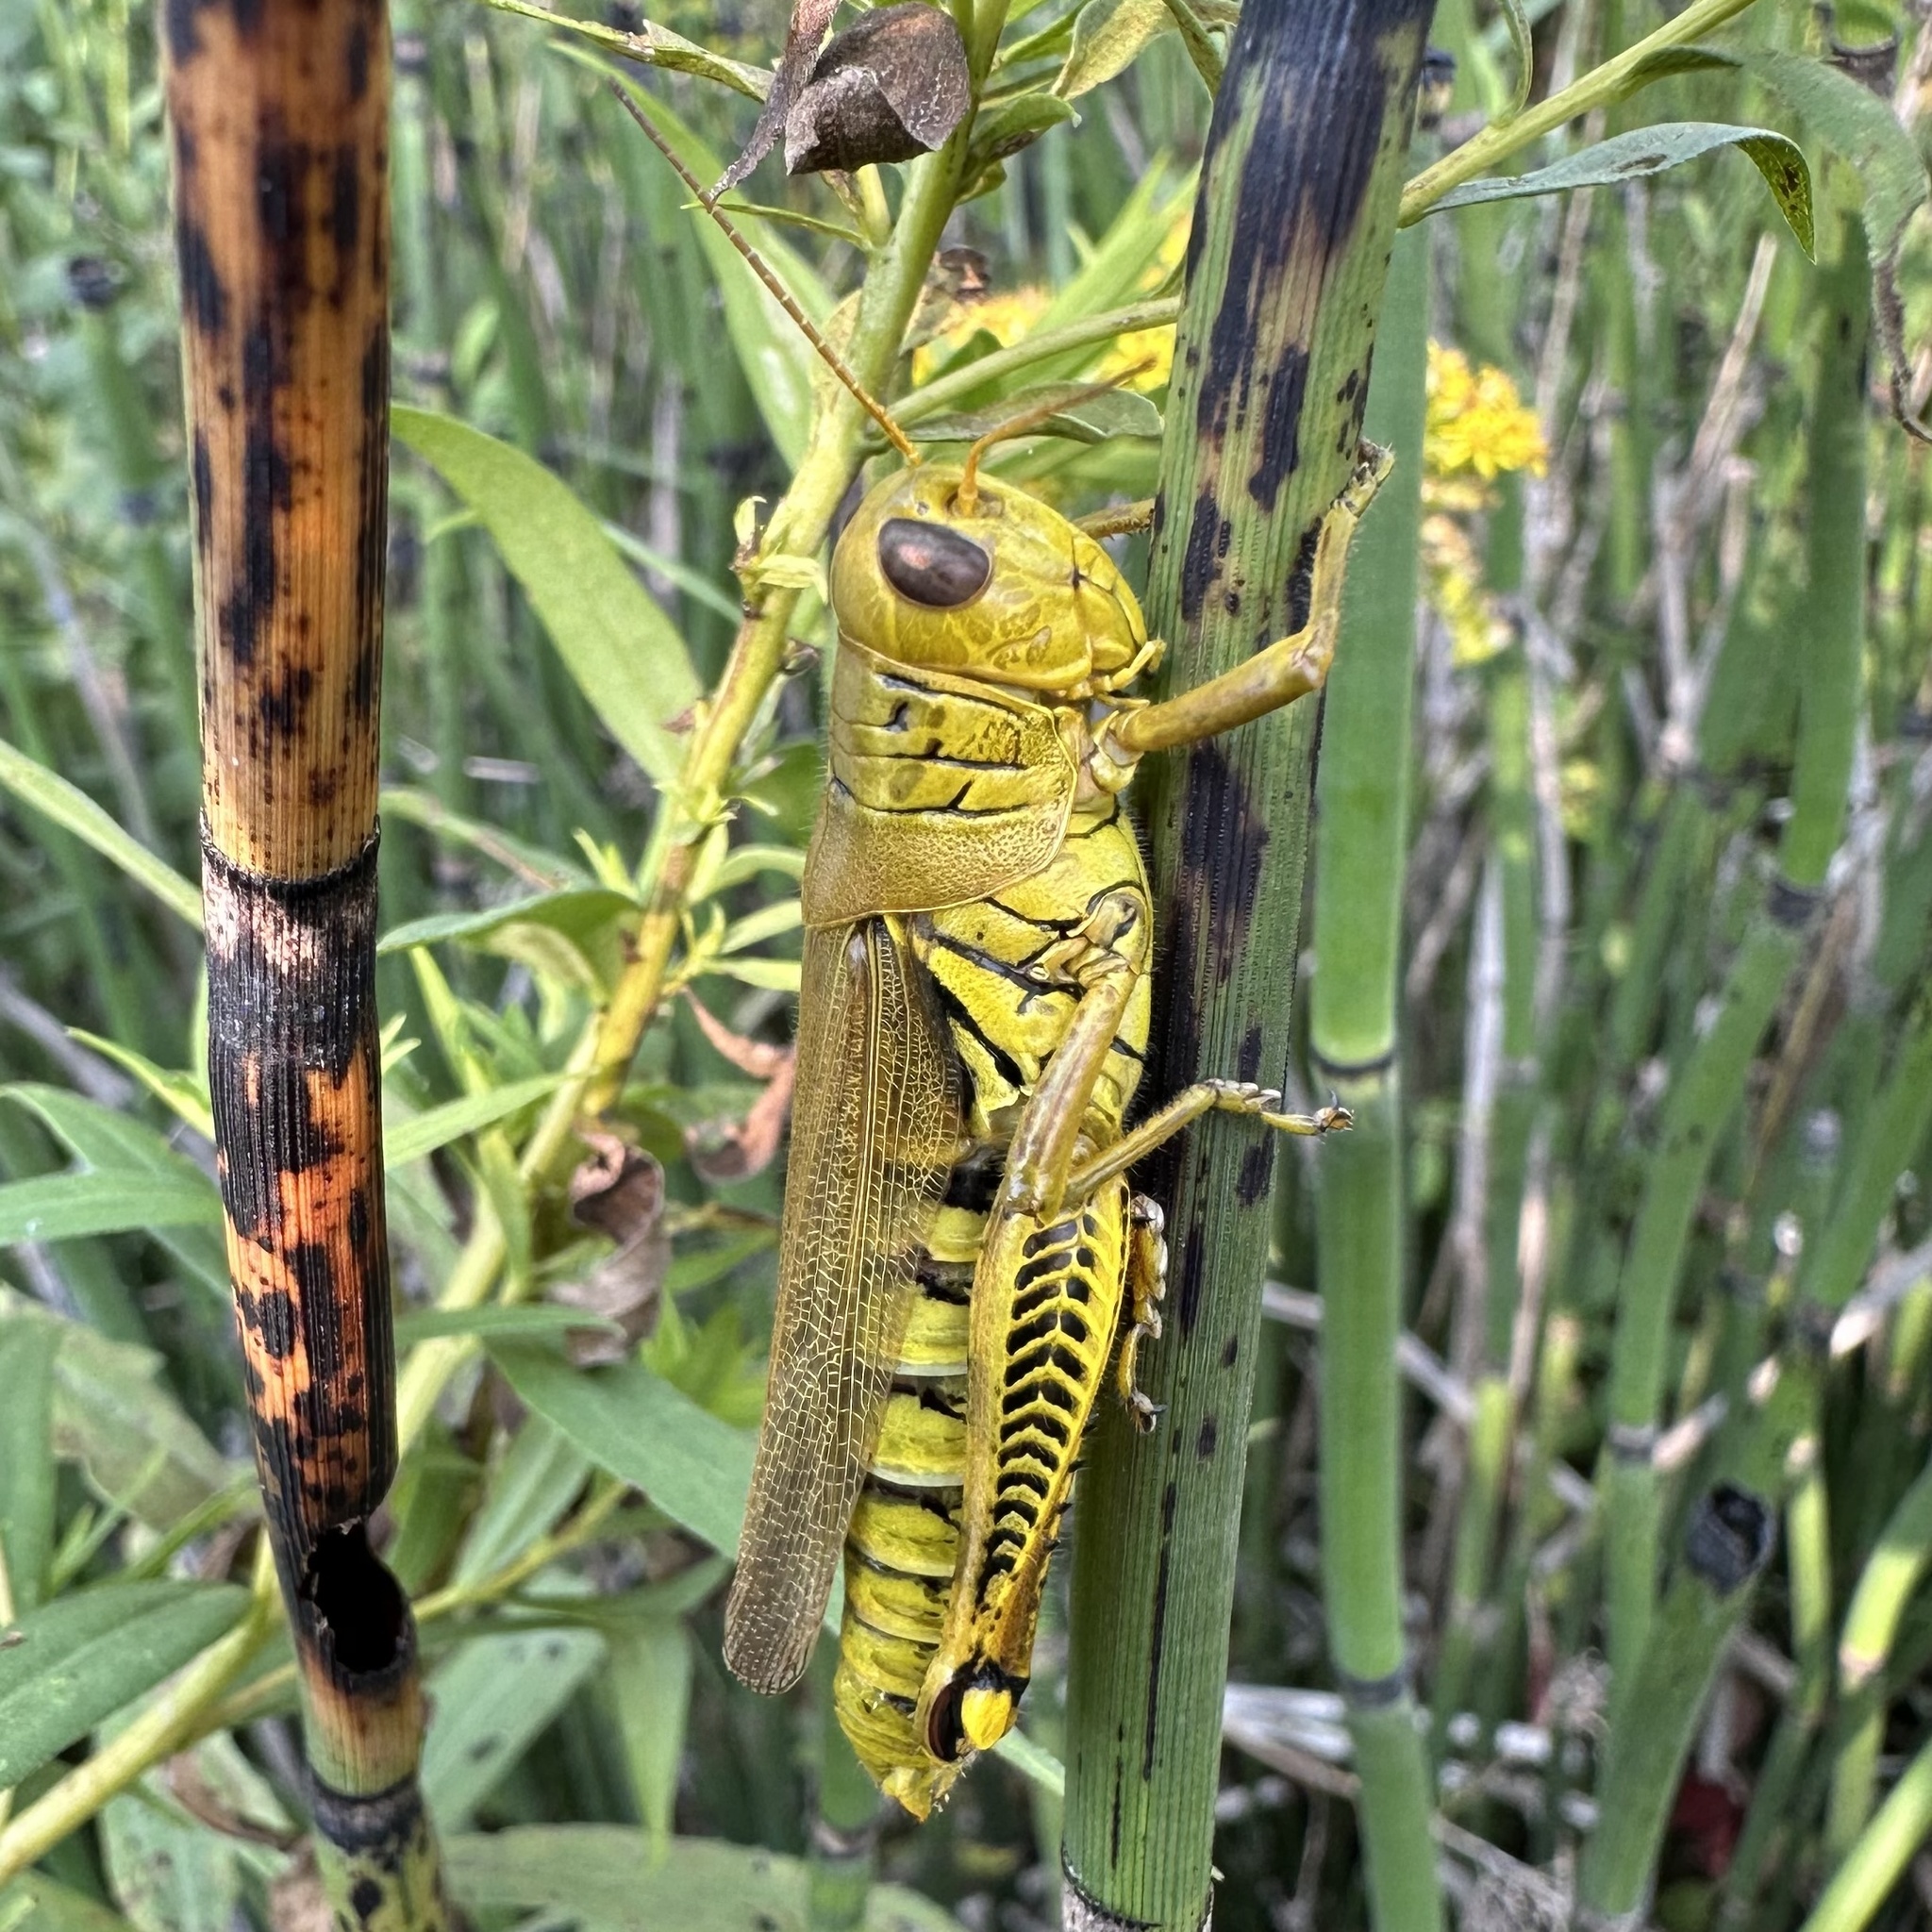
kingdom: Animalia
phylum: Arthropoda
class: Insecta
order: Orthoptera
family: Acrididae
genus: Melanoplus
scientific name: Melanoplus differentialis
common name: Differential grasshopper
